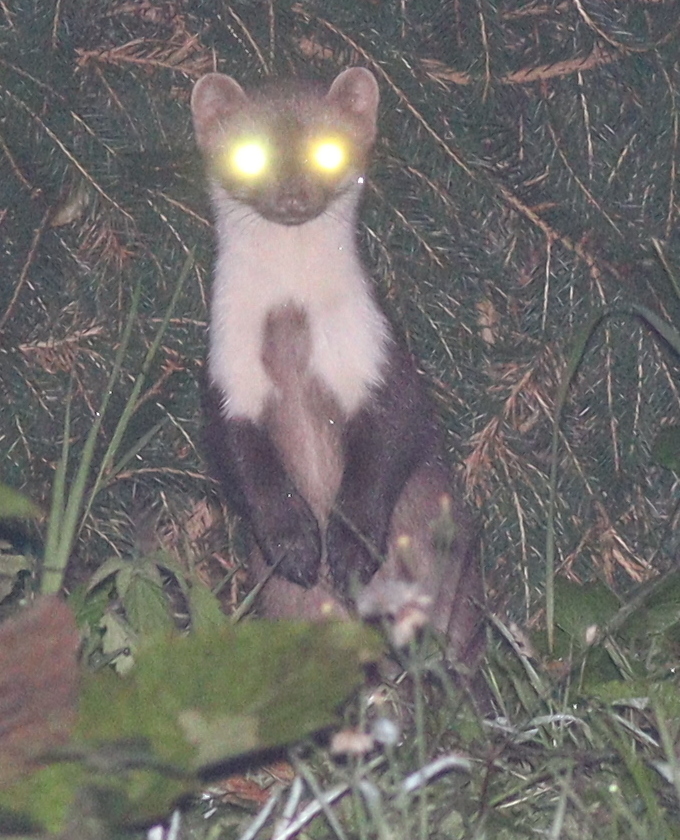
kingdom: Animalia
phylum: Chordata
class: Mammalia
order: Carnivora
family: Mustelidae
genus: Martes
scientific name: Martes foina
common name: Beech marten
